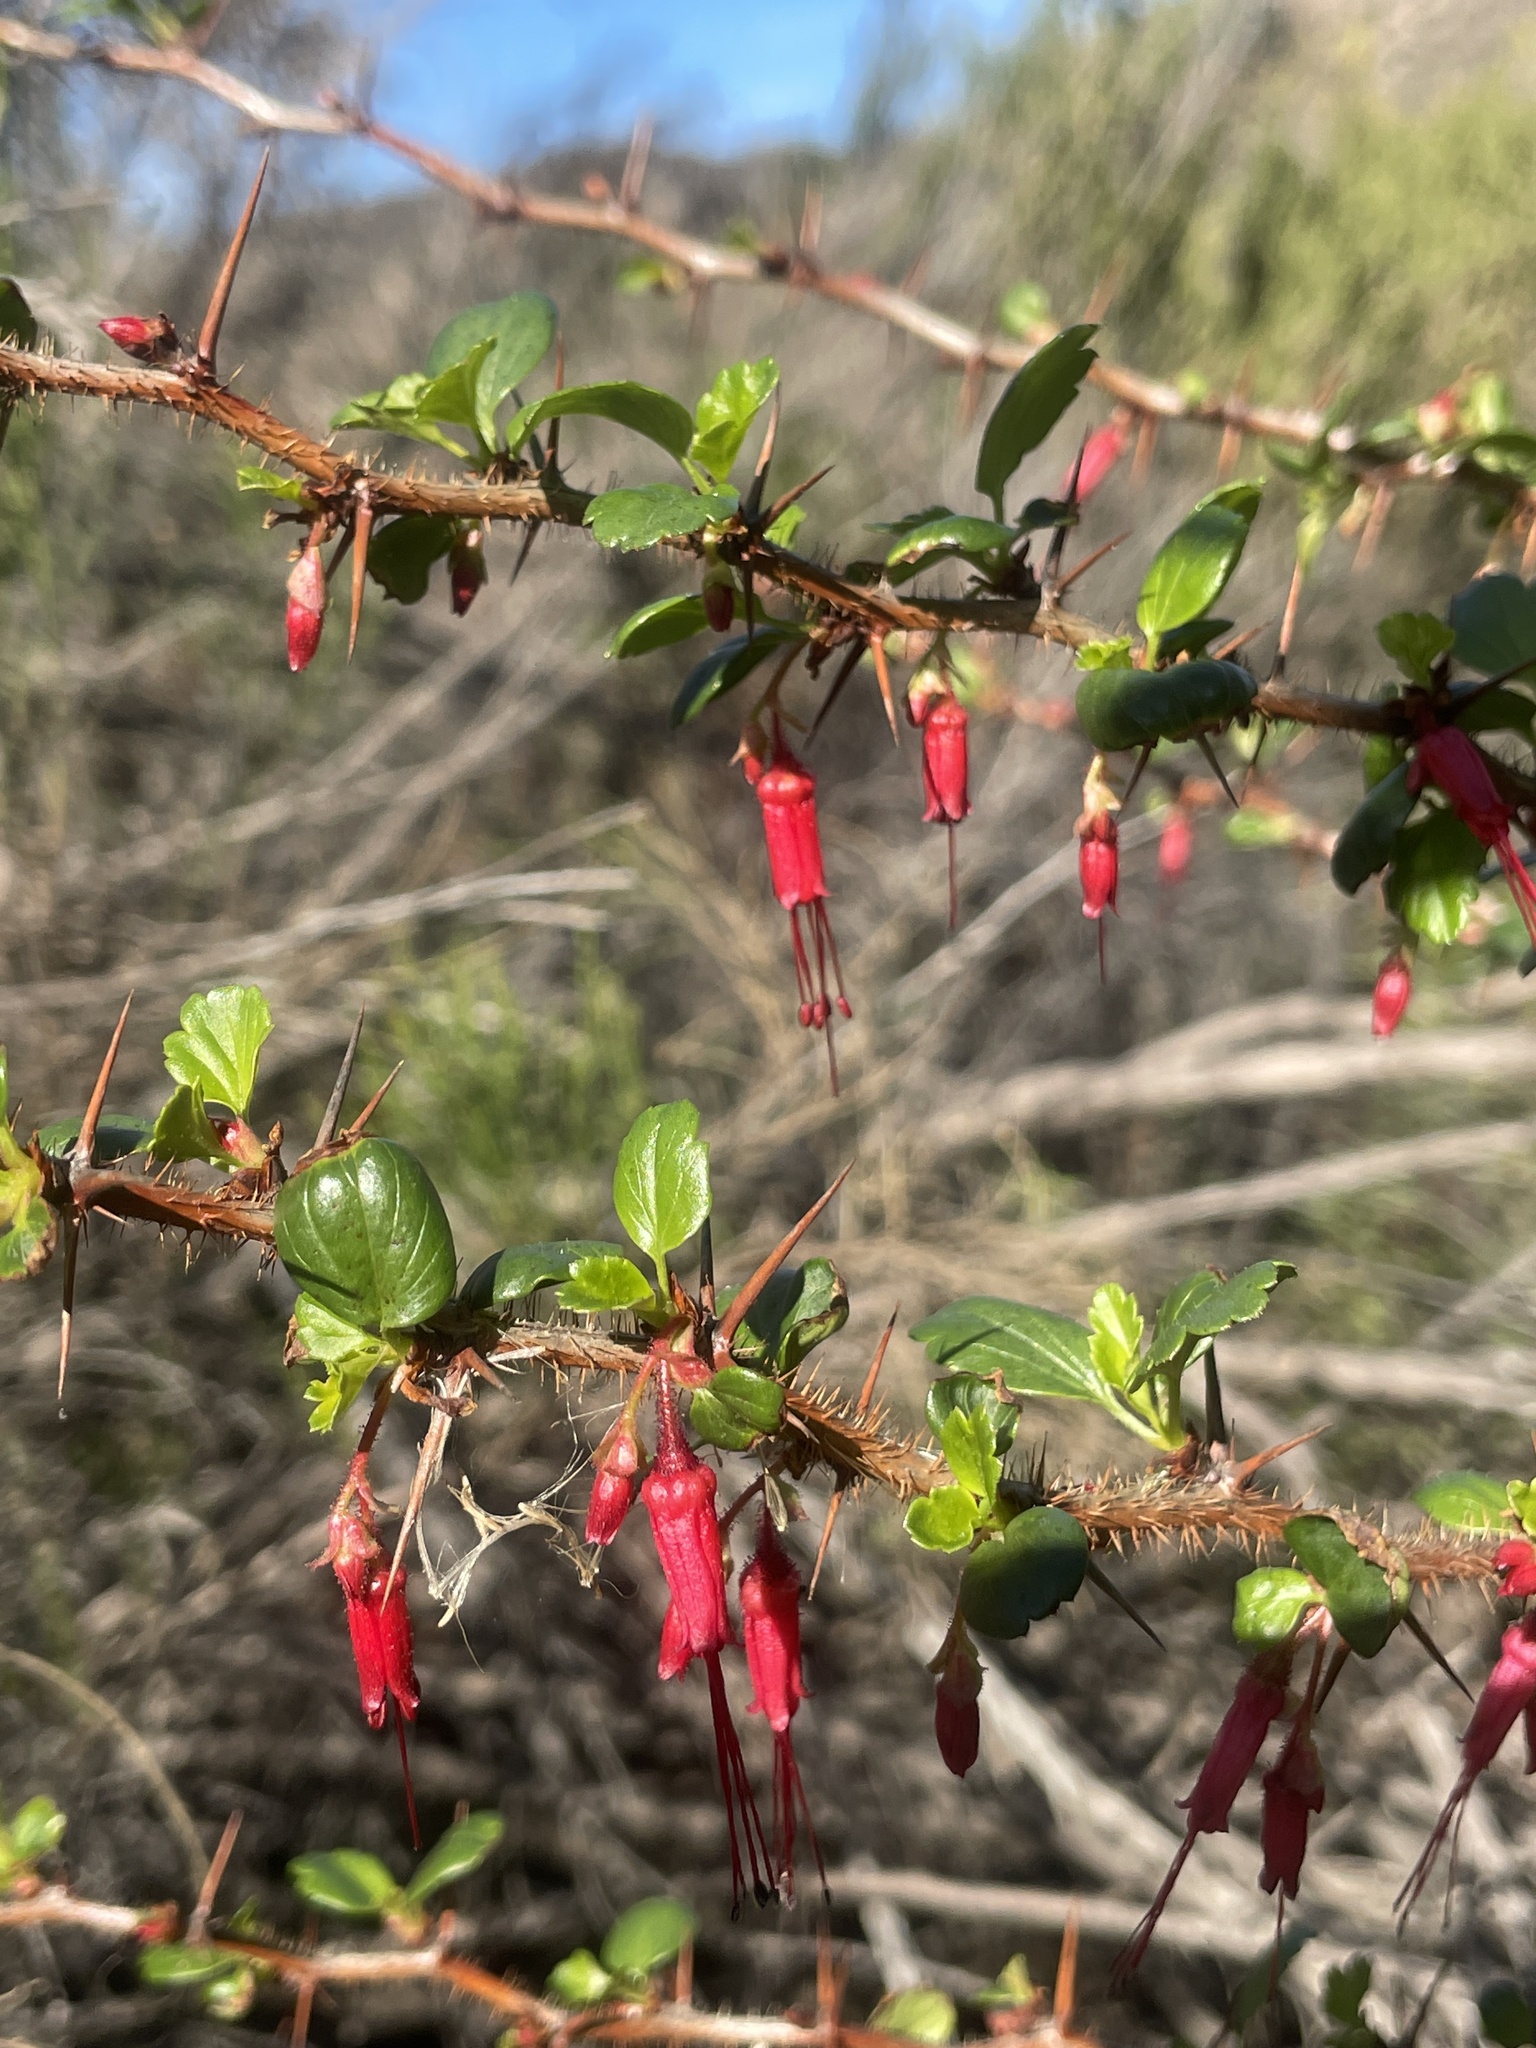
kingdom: Plantae
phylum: Tracheophyta
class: Magnoliopsida
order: Saxifragales
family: Grossulariaceae
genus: Ribes
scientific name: Ribes speciosum
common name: Fuchsia-flower gooseberry
